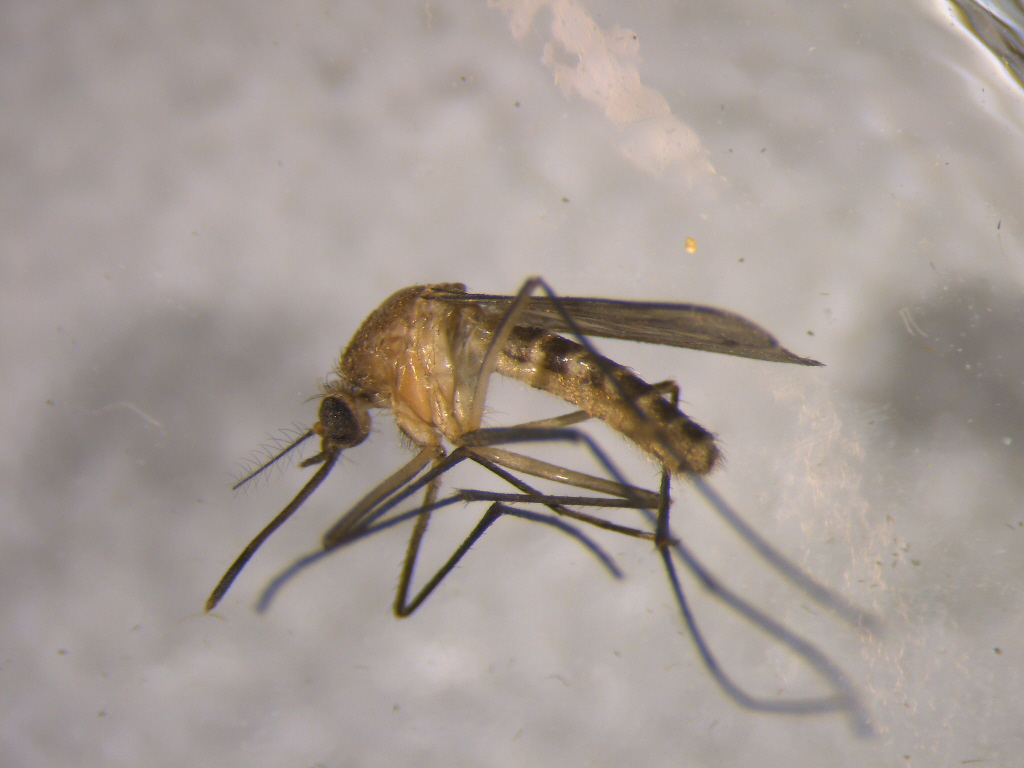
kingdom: Animalia
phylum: Arthropoda
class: Insecta
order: Diptera
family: Culicidae
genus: Culex
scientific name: Culex quinquefasciatus
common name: Southern house mosquito
